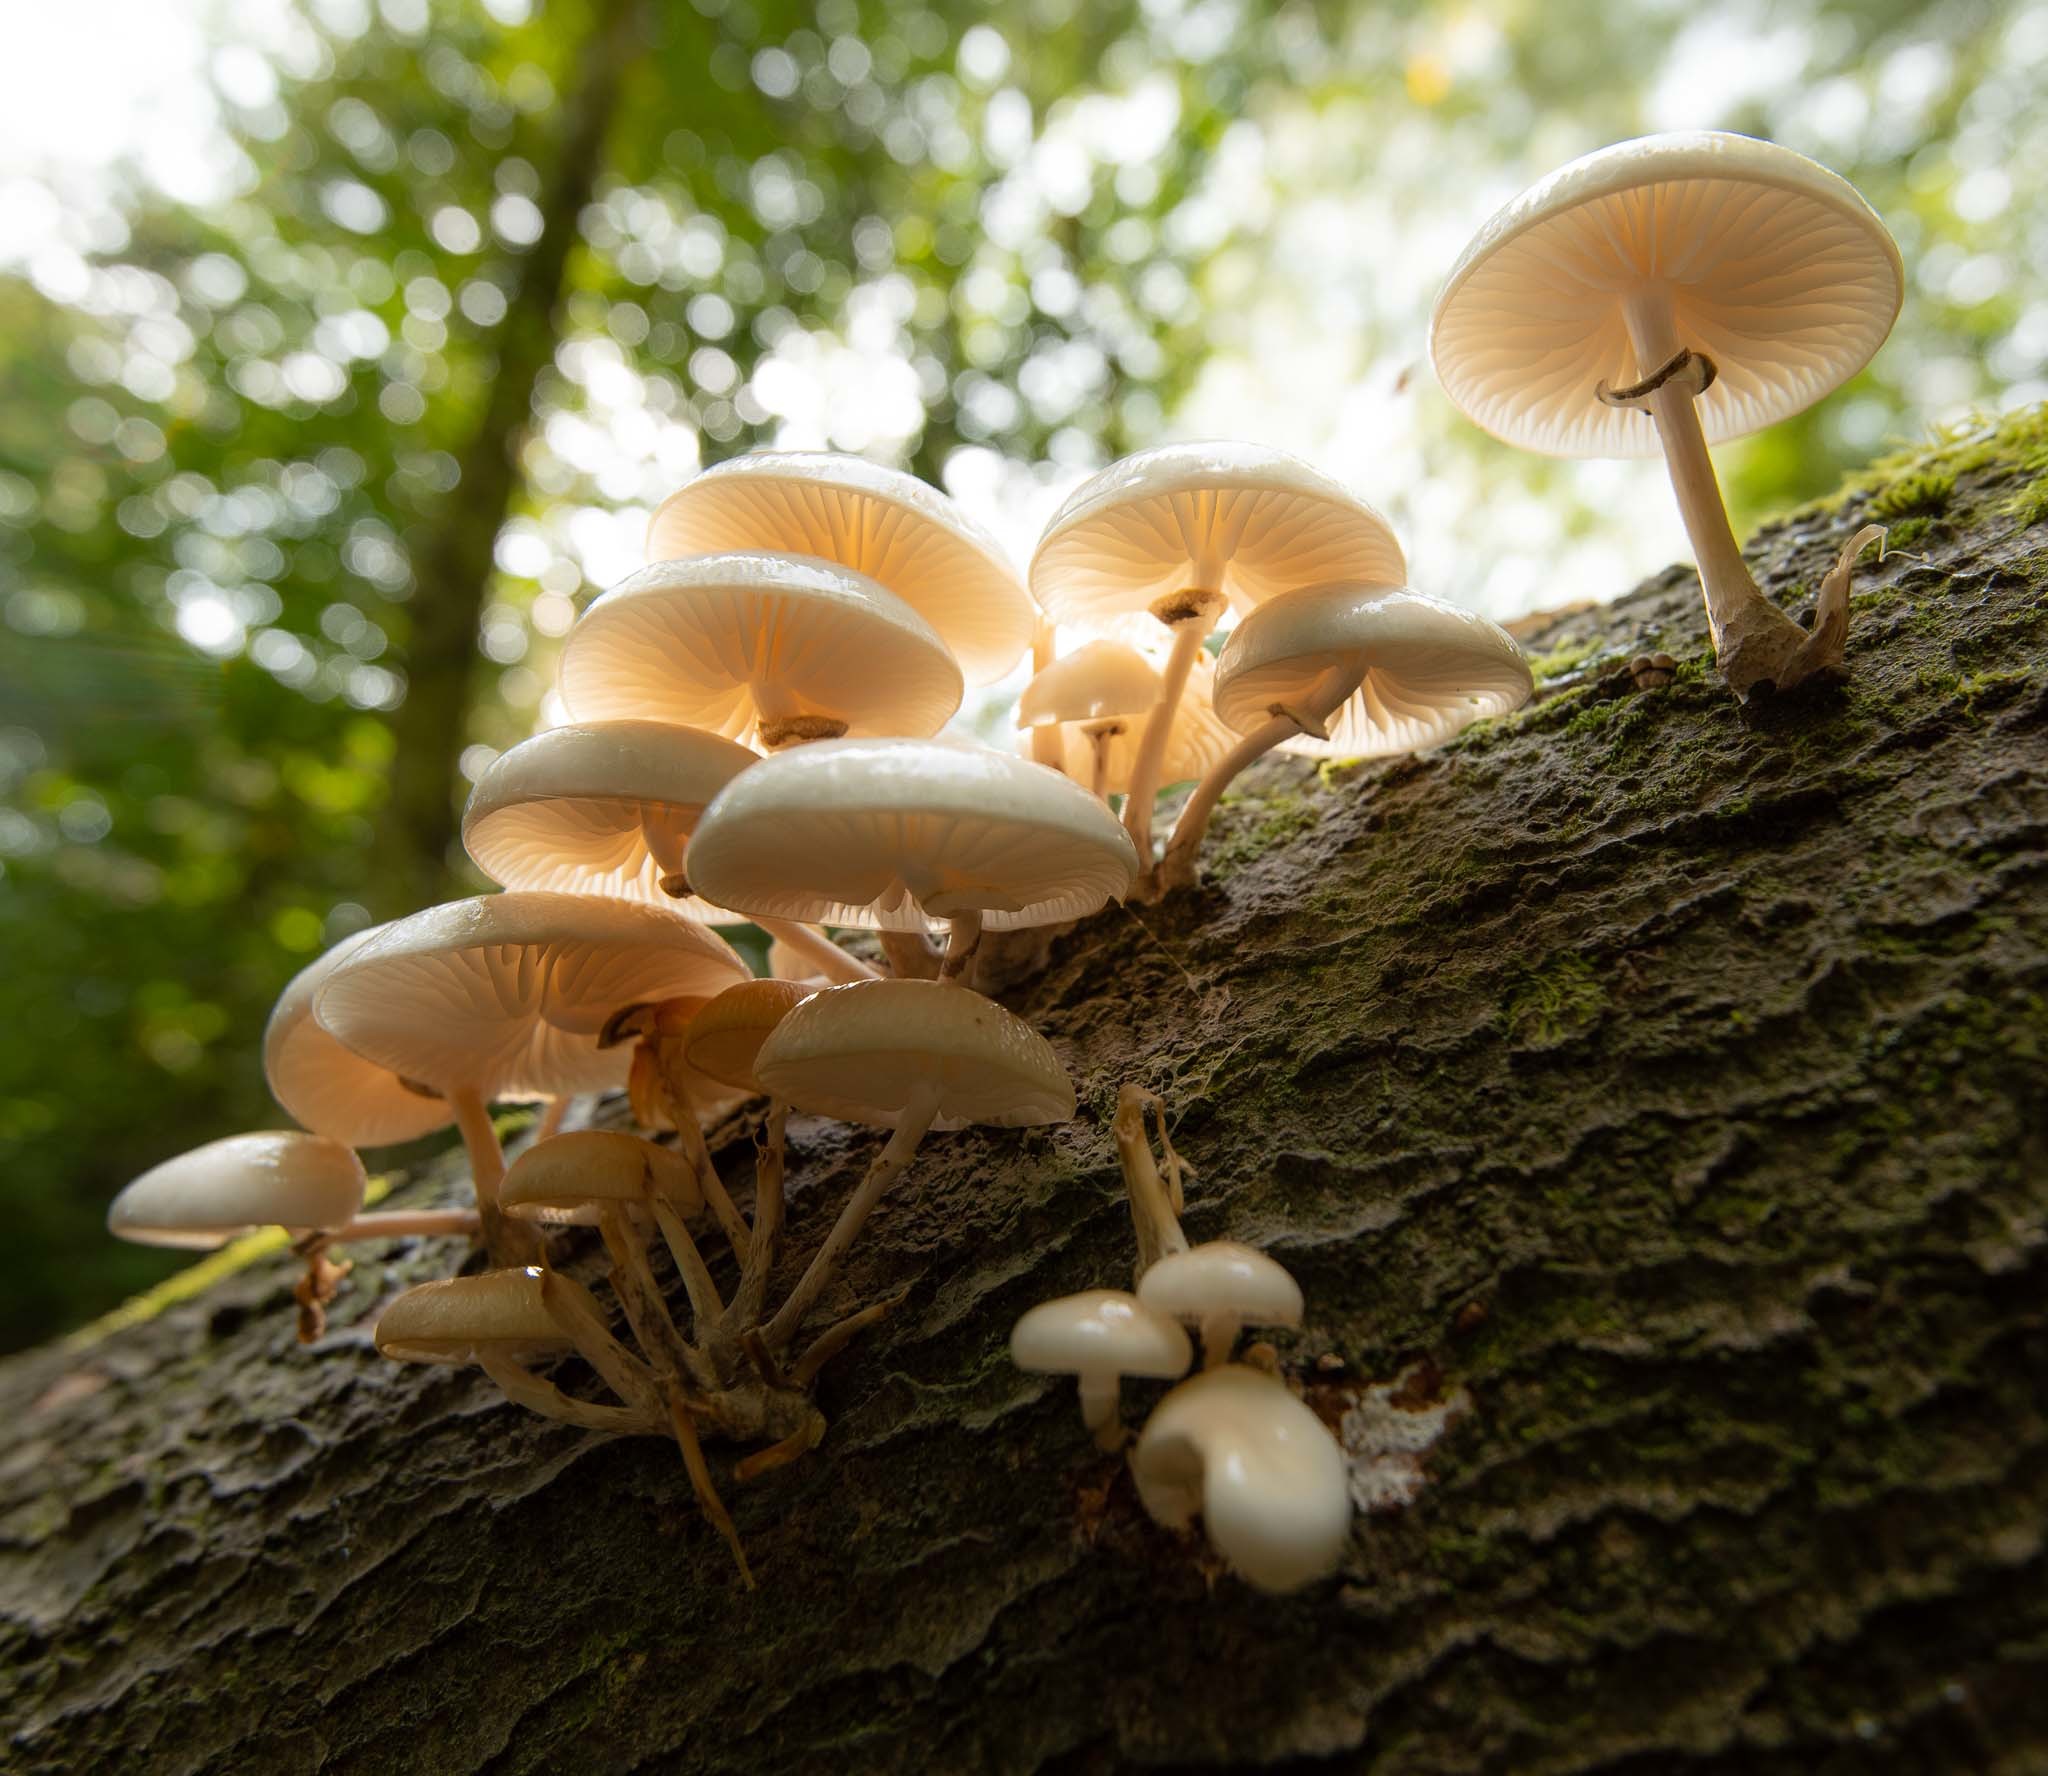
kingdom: Fungi
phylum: Basidiomycota
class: Agaricomycetes
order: Agaricales
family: Physalacriaceae
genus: Mucidula
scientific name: Mucidula mucida
